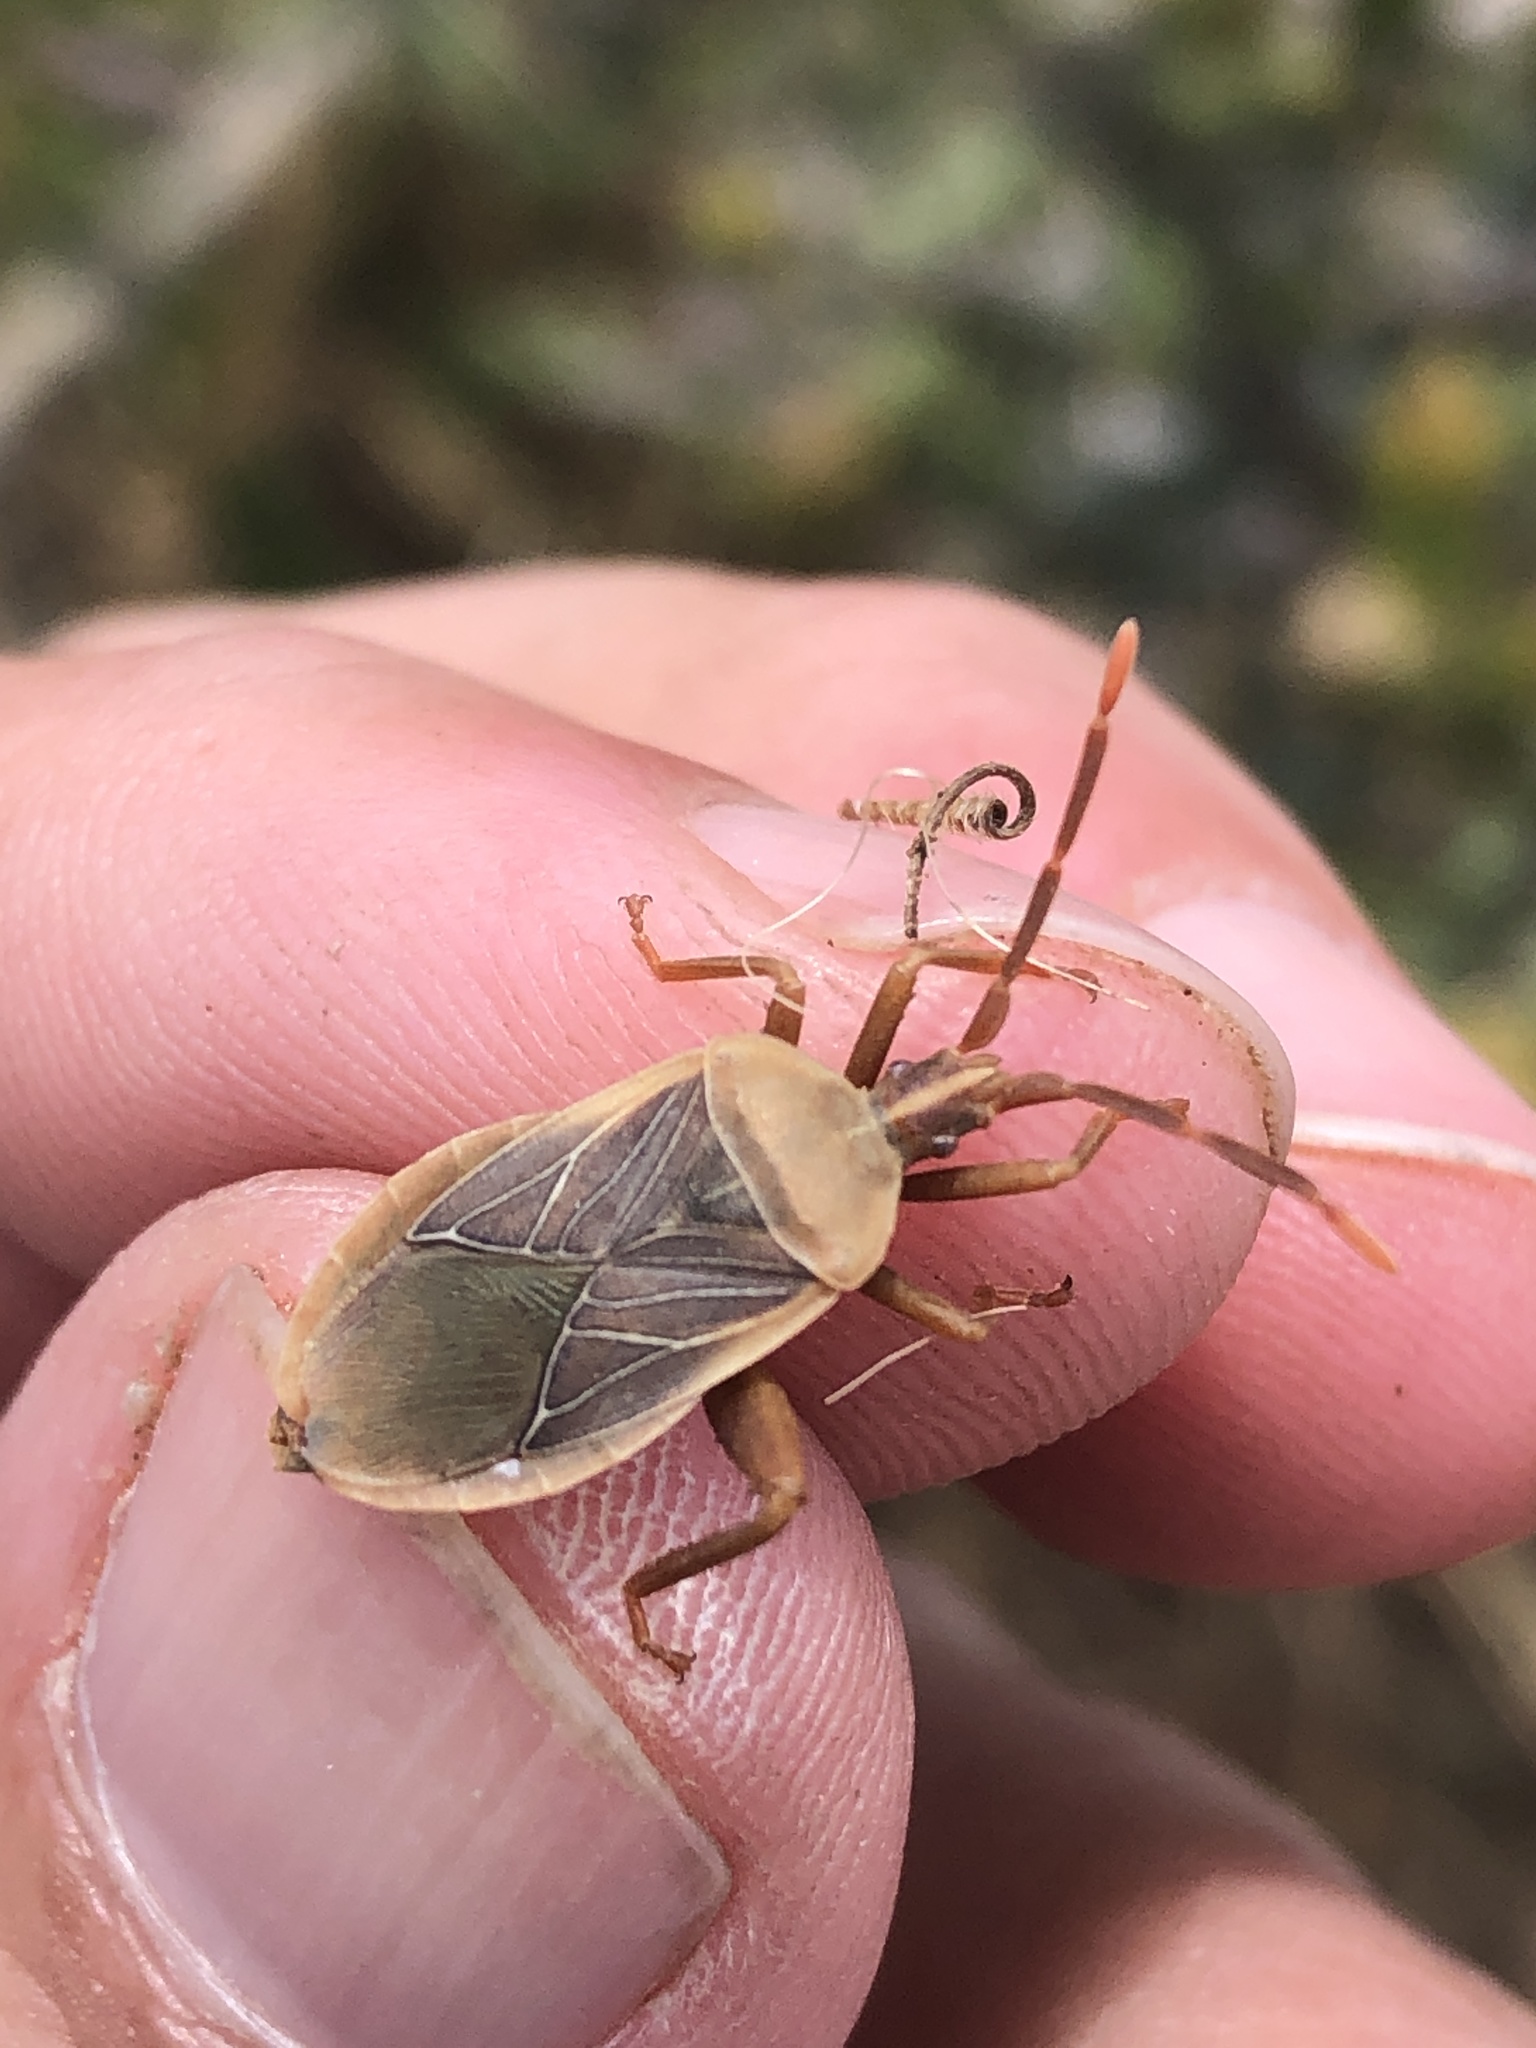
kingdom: Animalia
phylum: Arthropoda
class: Insecta
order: Hemiptera
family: Coreidae
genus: Chelinidea
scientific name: Chelinidea vittiger
